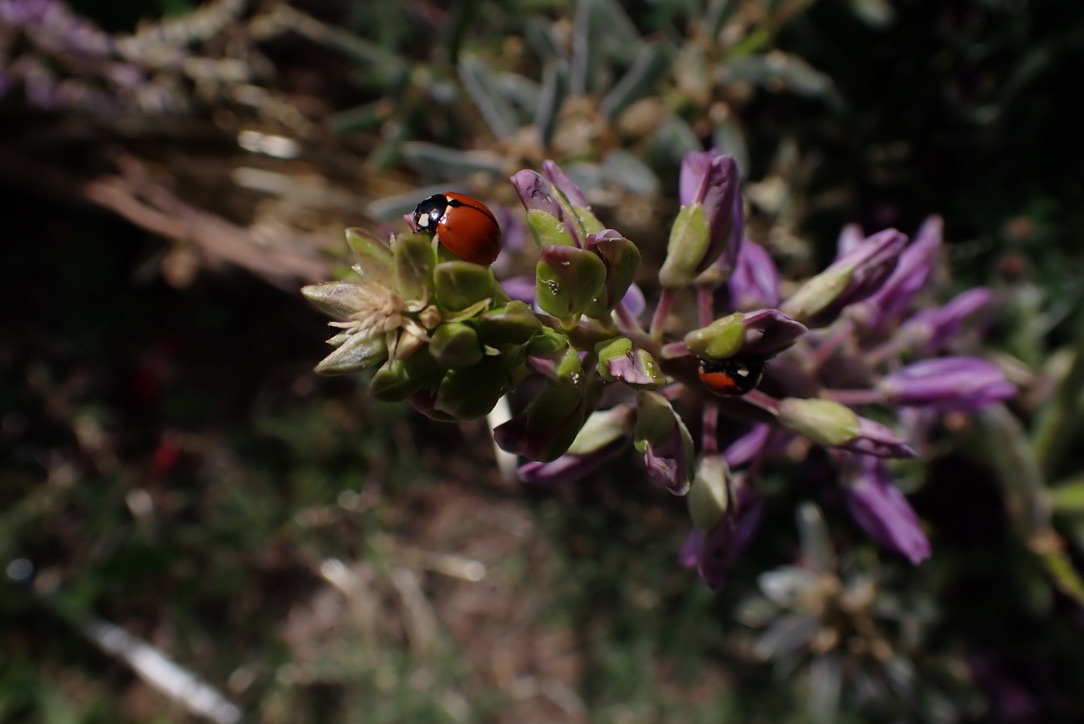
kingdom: Animalia
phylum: Arthropoda
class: Insecta
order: Coleoptera
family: Coccinellidae
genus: Coccinella
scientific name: Coccinella californica
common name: Lady beetle
